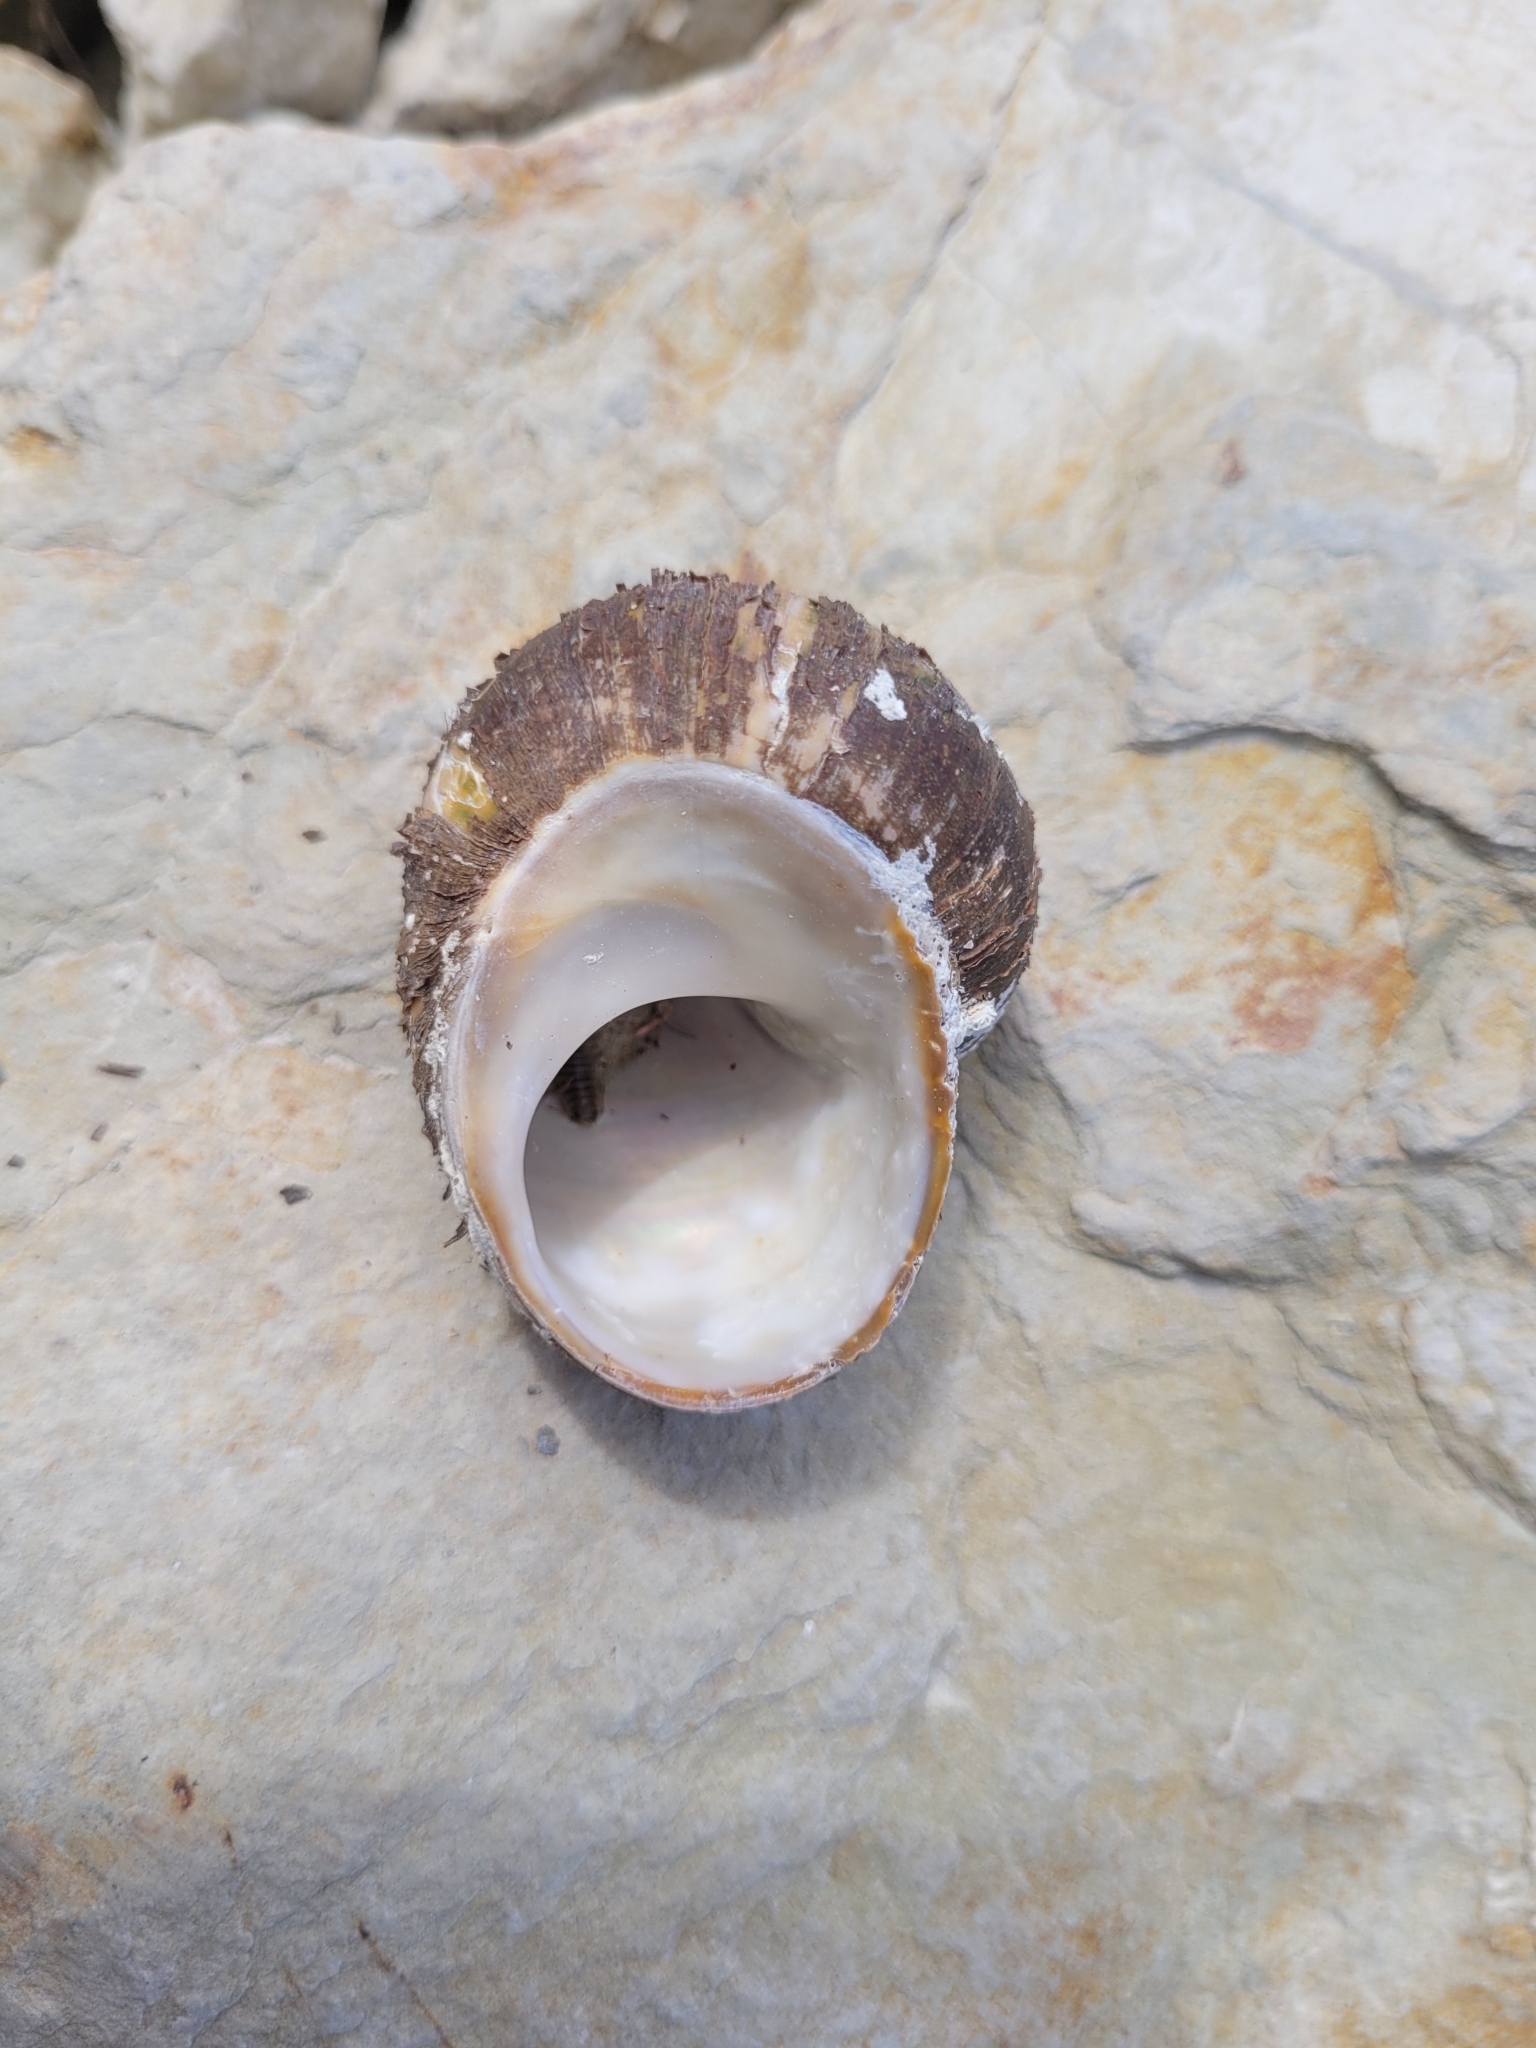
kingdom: Animalia
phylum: Mollusca
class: Gastropoda
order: Trochida
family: Turbinidae
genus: Lunella
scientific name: Lunella smaragda
